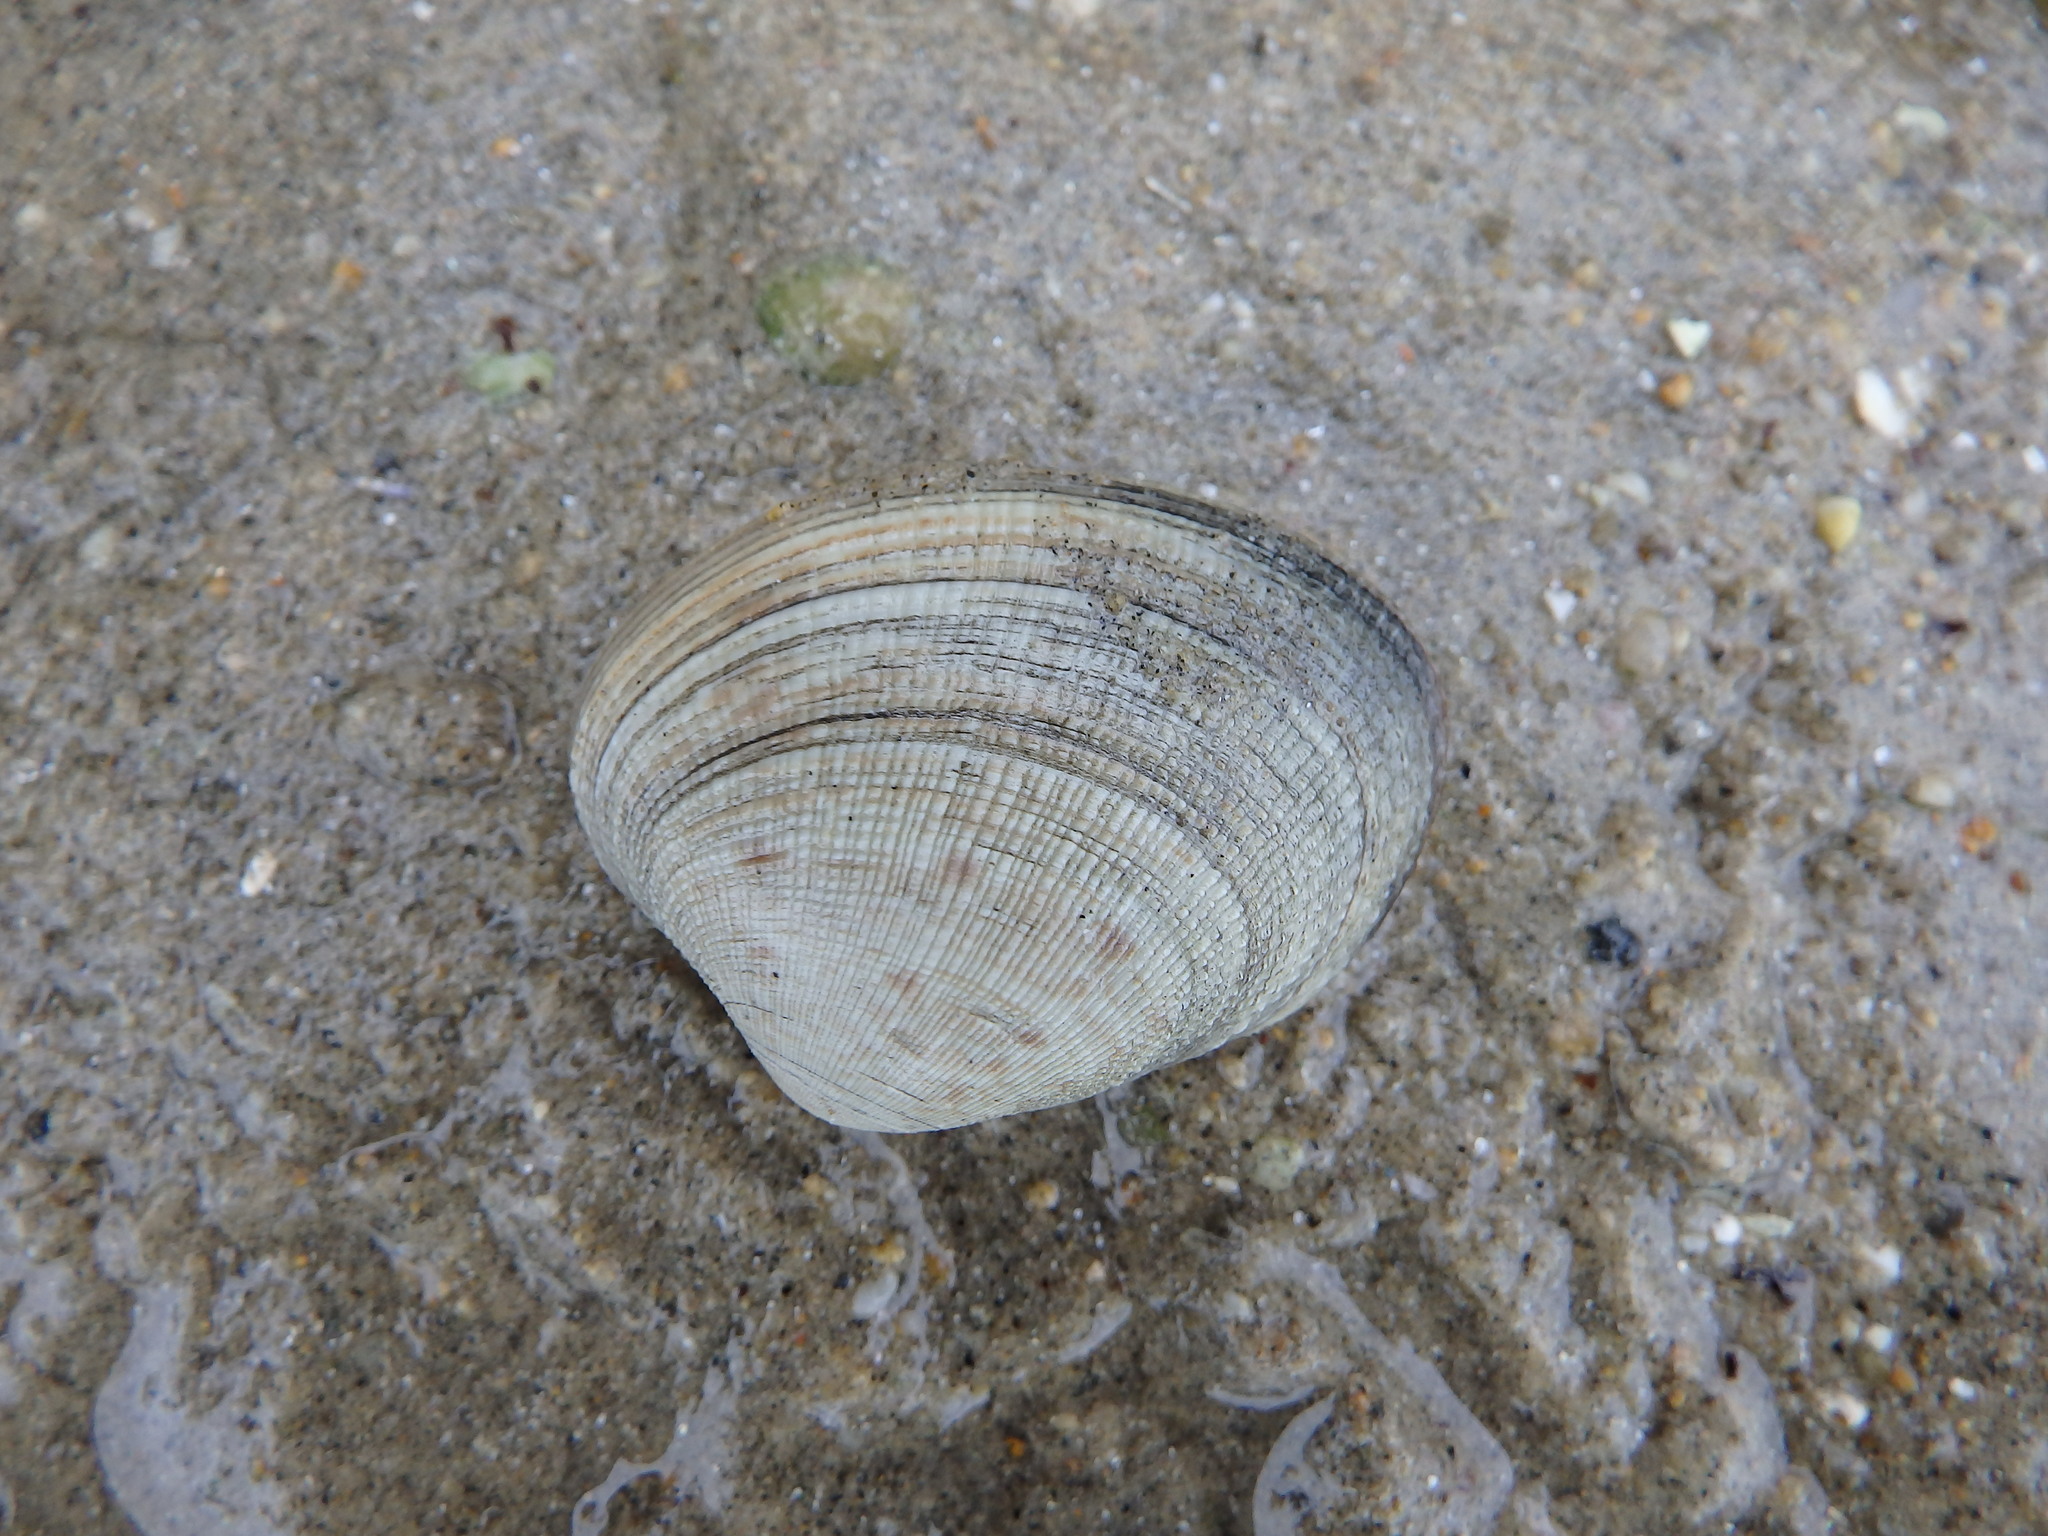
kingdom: Animalia
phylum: Mollusca
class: Bivalvia
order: Venerida
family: Veneridae
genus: Ruditapes
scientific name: Ruditapes decussatus
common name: Chequered carpet shell
